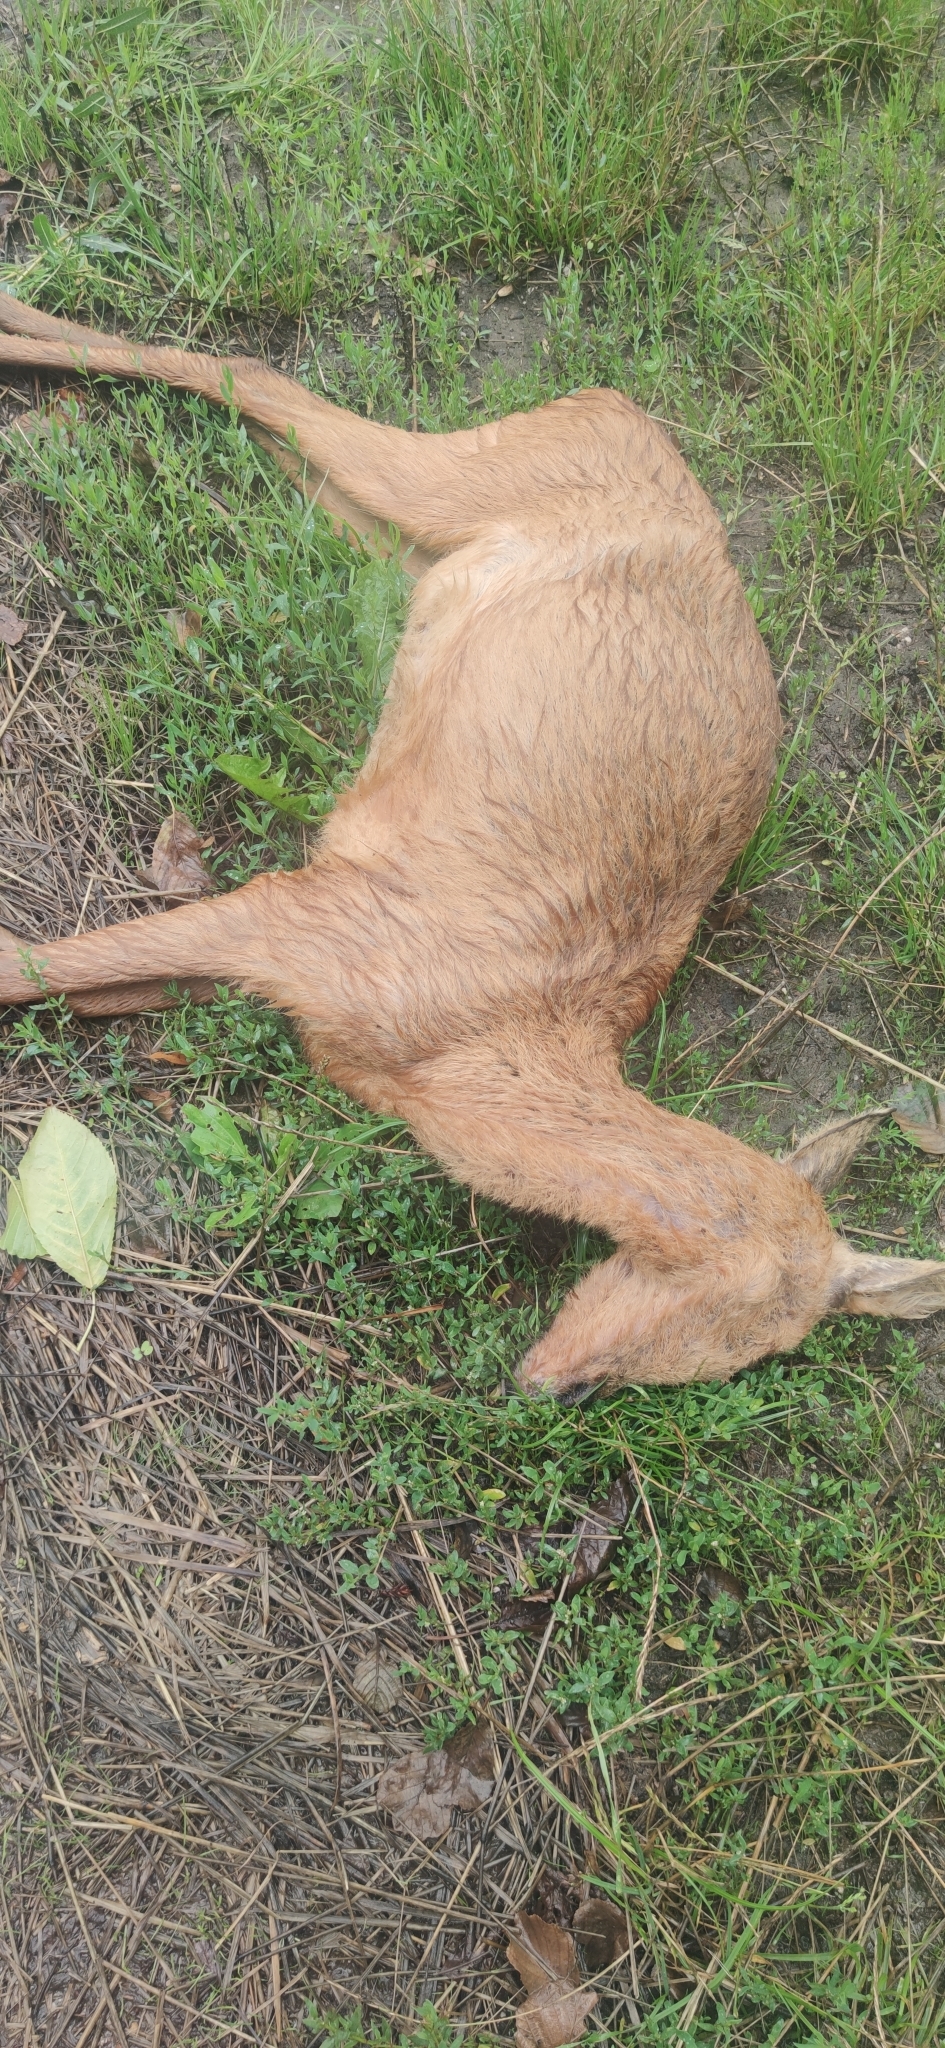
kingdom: Animalia
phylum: Chordata
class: Mammalia
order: Artiodactyla
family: Cervidae
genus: Capreolus
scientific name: Capreolus capreolus
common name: Western roe deer
